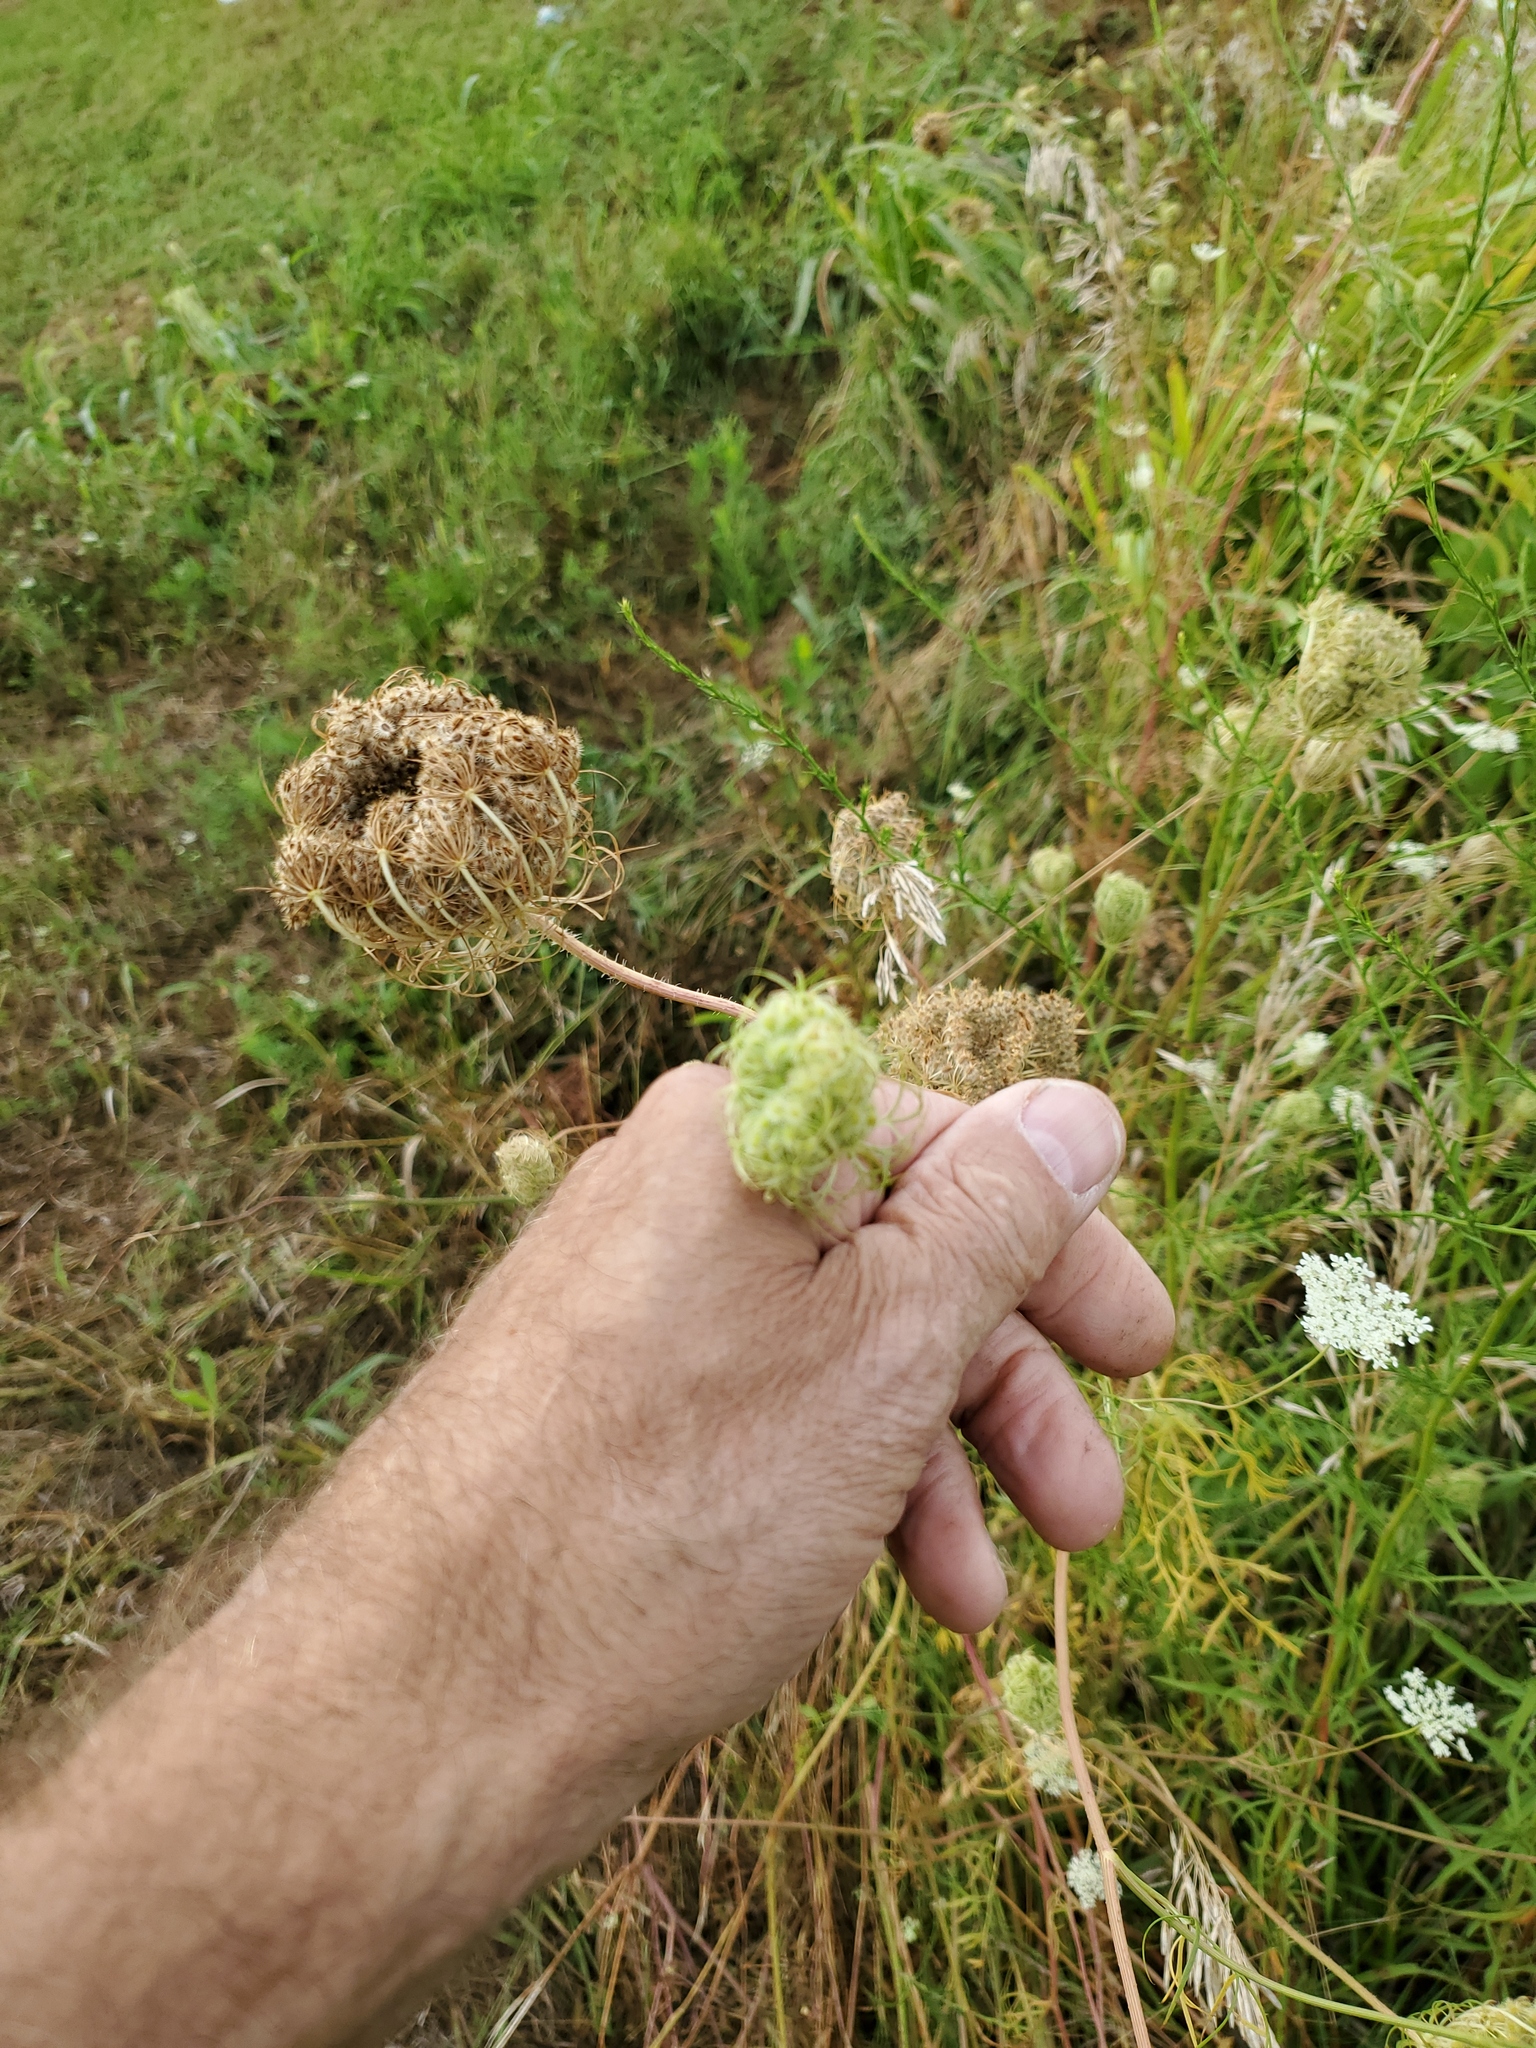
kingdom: Plantae
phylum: Tracheophyta
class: Magnoliopsida
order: Apiales
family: Apiaceae
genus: Daucus
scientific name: Daucus carota
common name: Wild carrot
